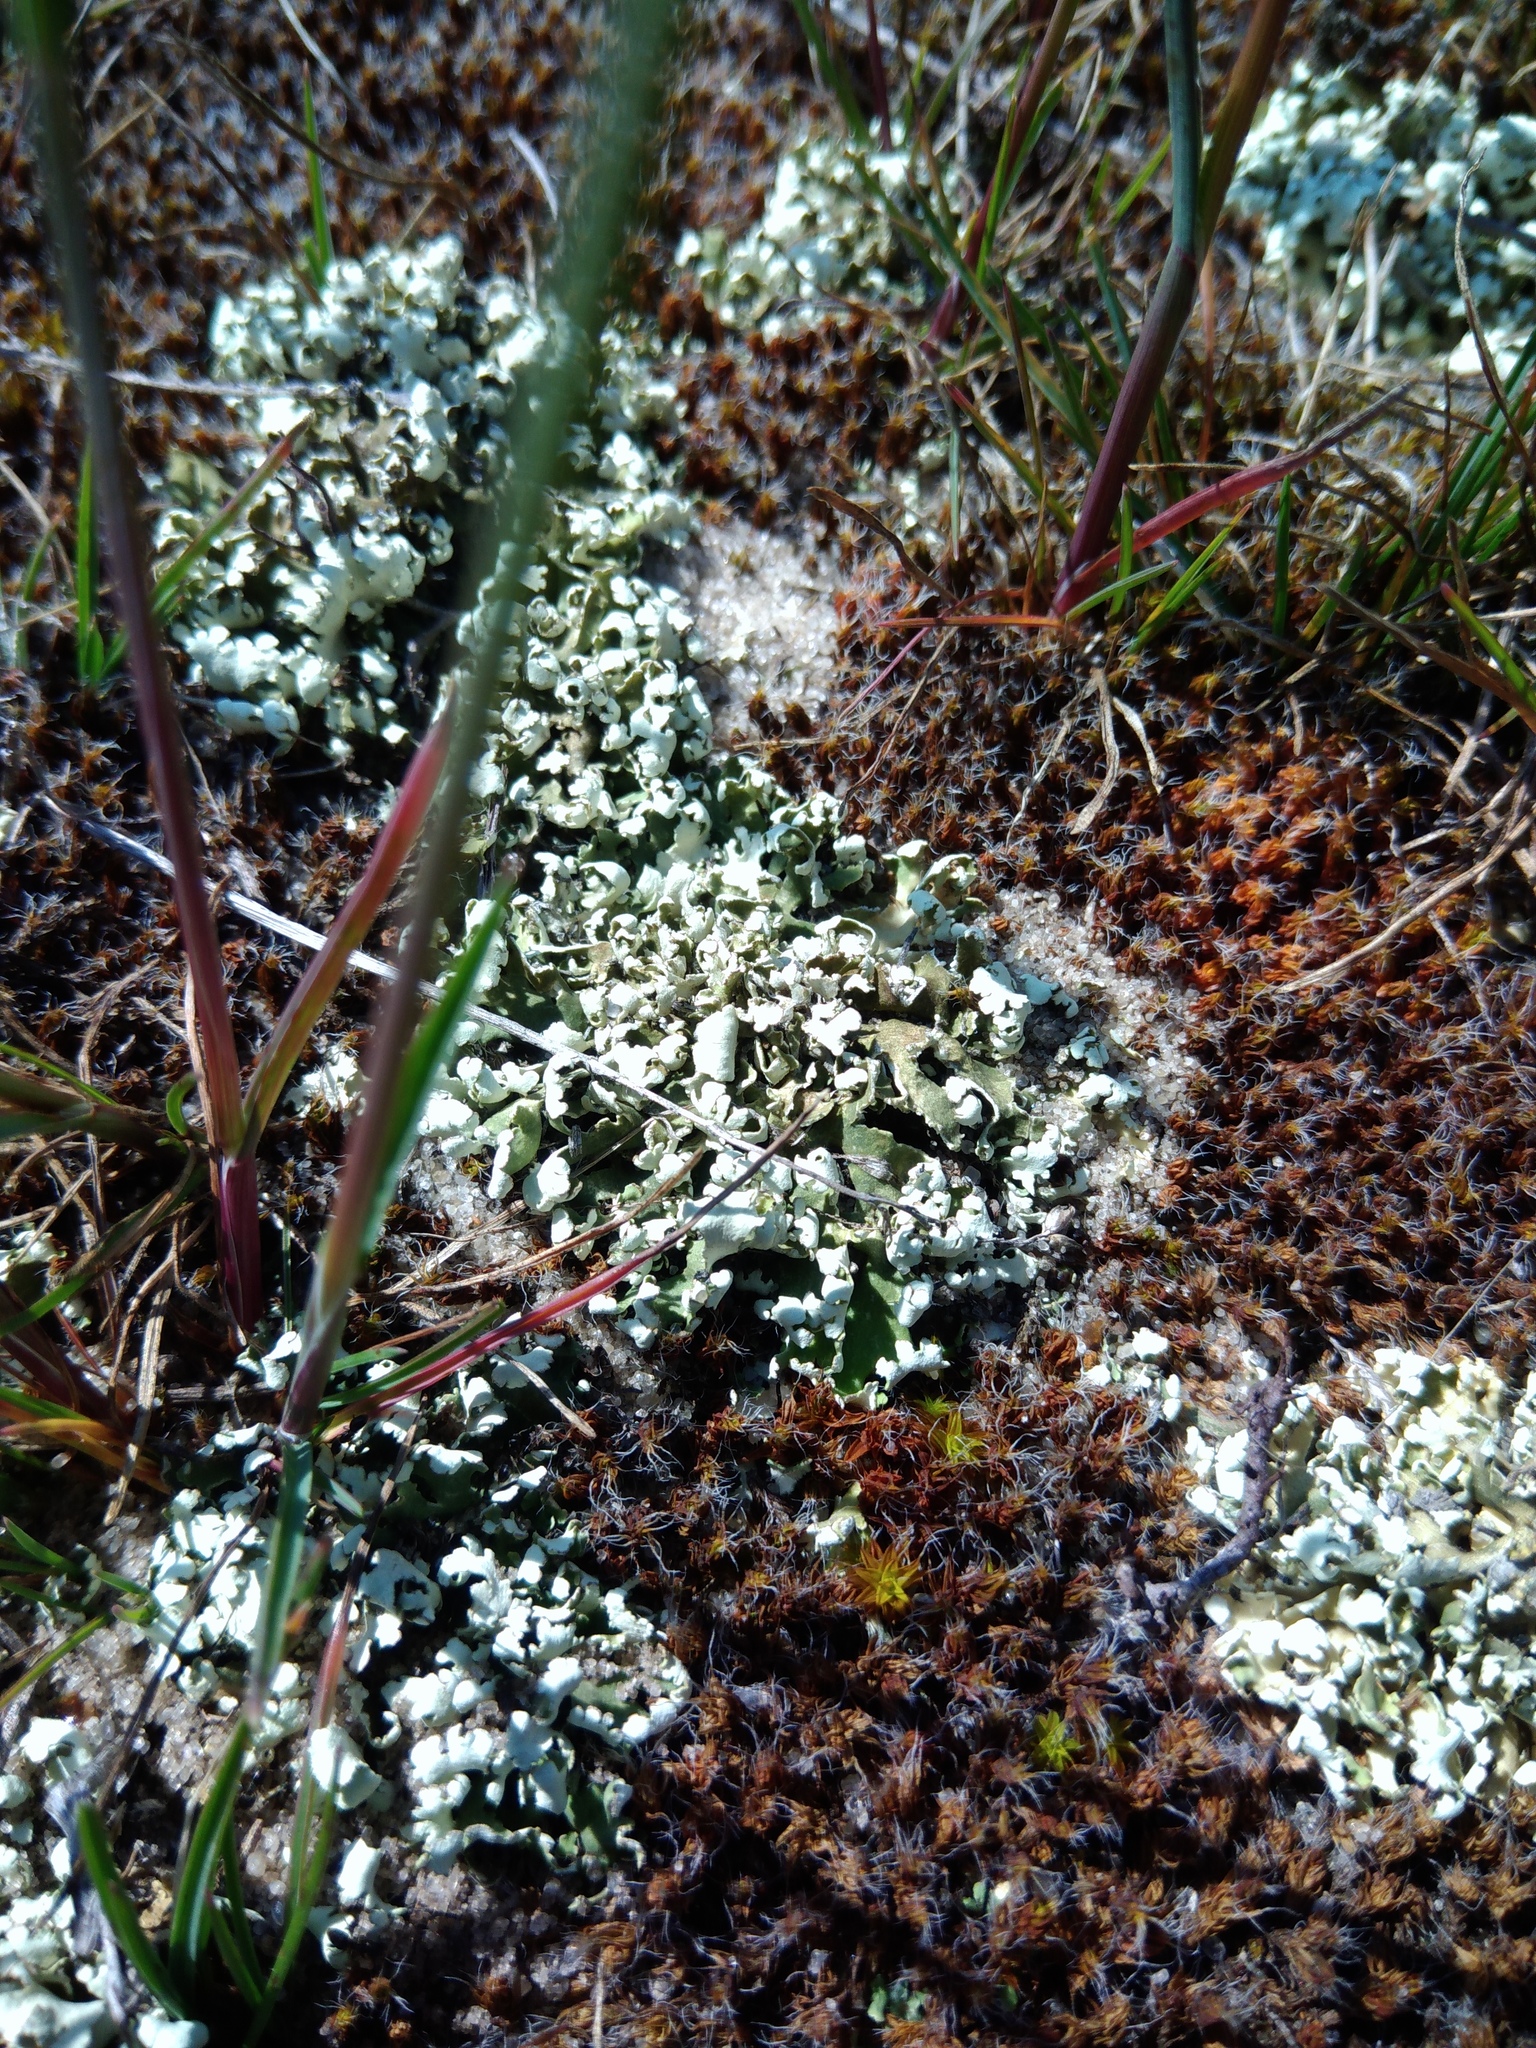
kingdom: Fungi
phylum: Ascomycota
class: Lecanoromycetes
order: Lecanorales
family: Cladoniaceae
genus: Cladonia
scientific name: Cladonia foliacea
